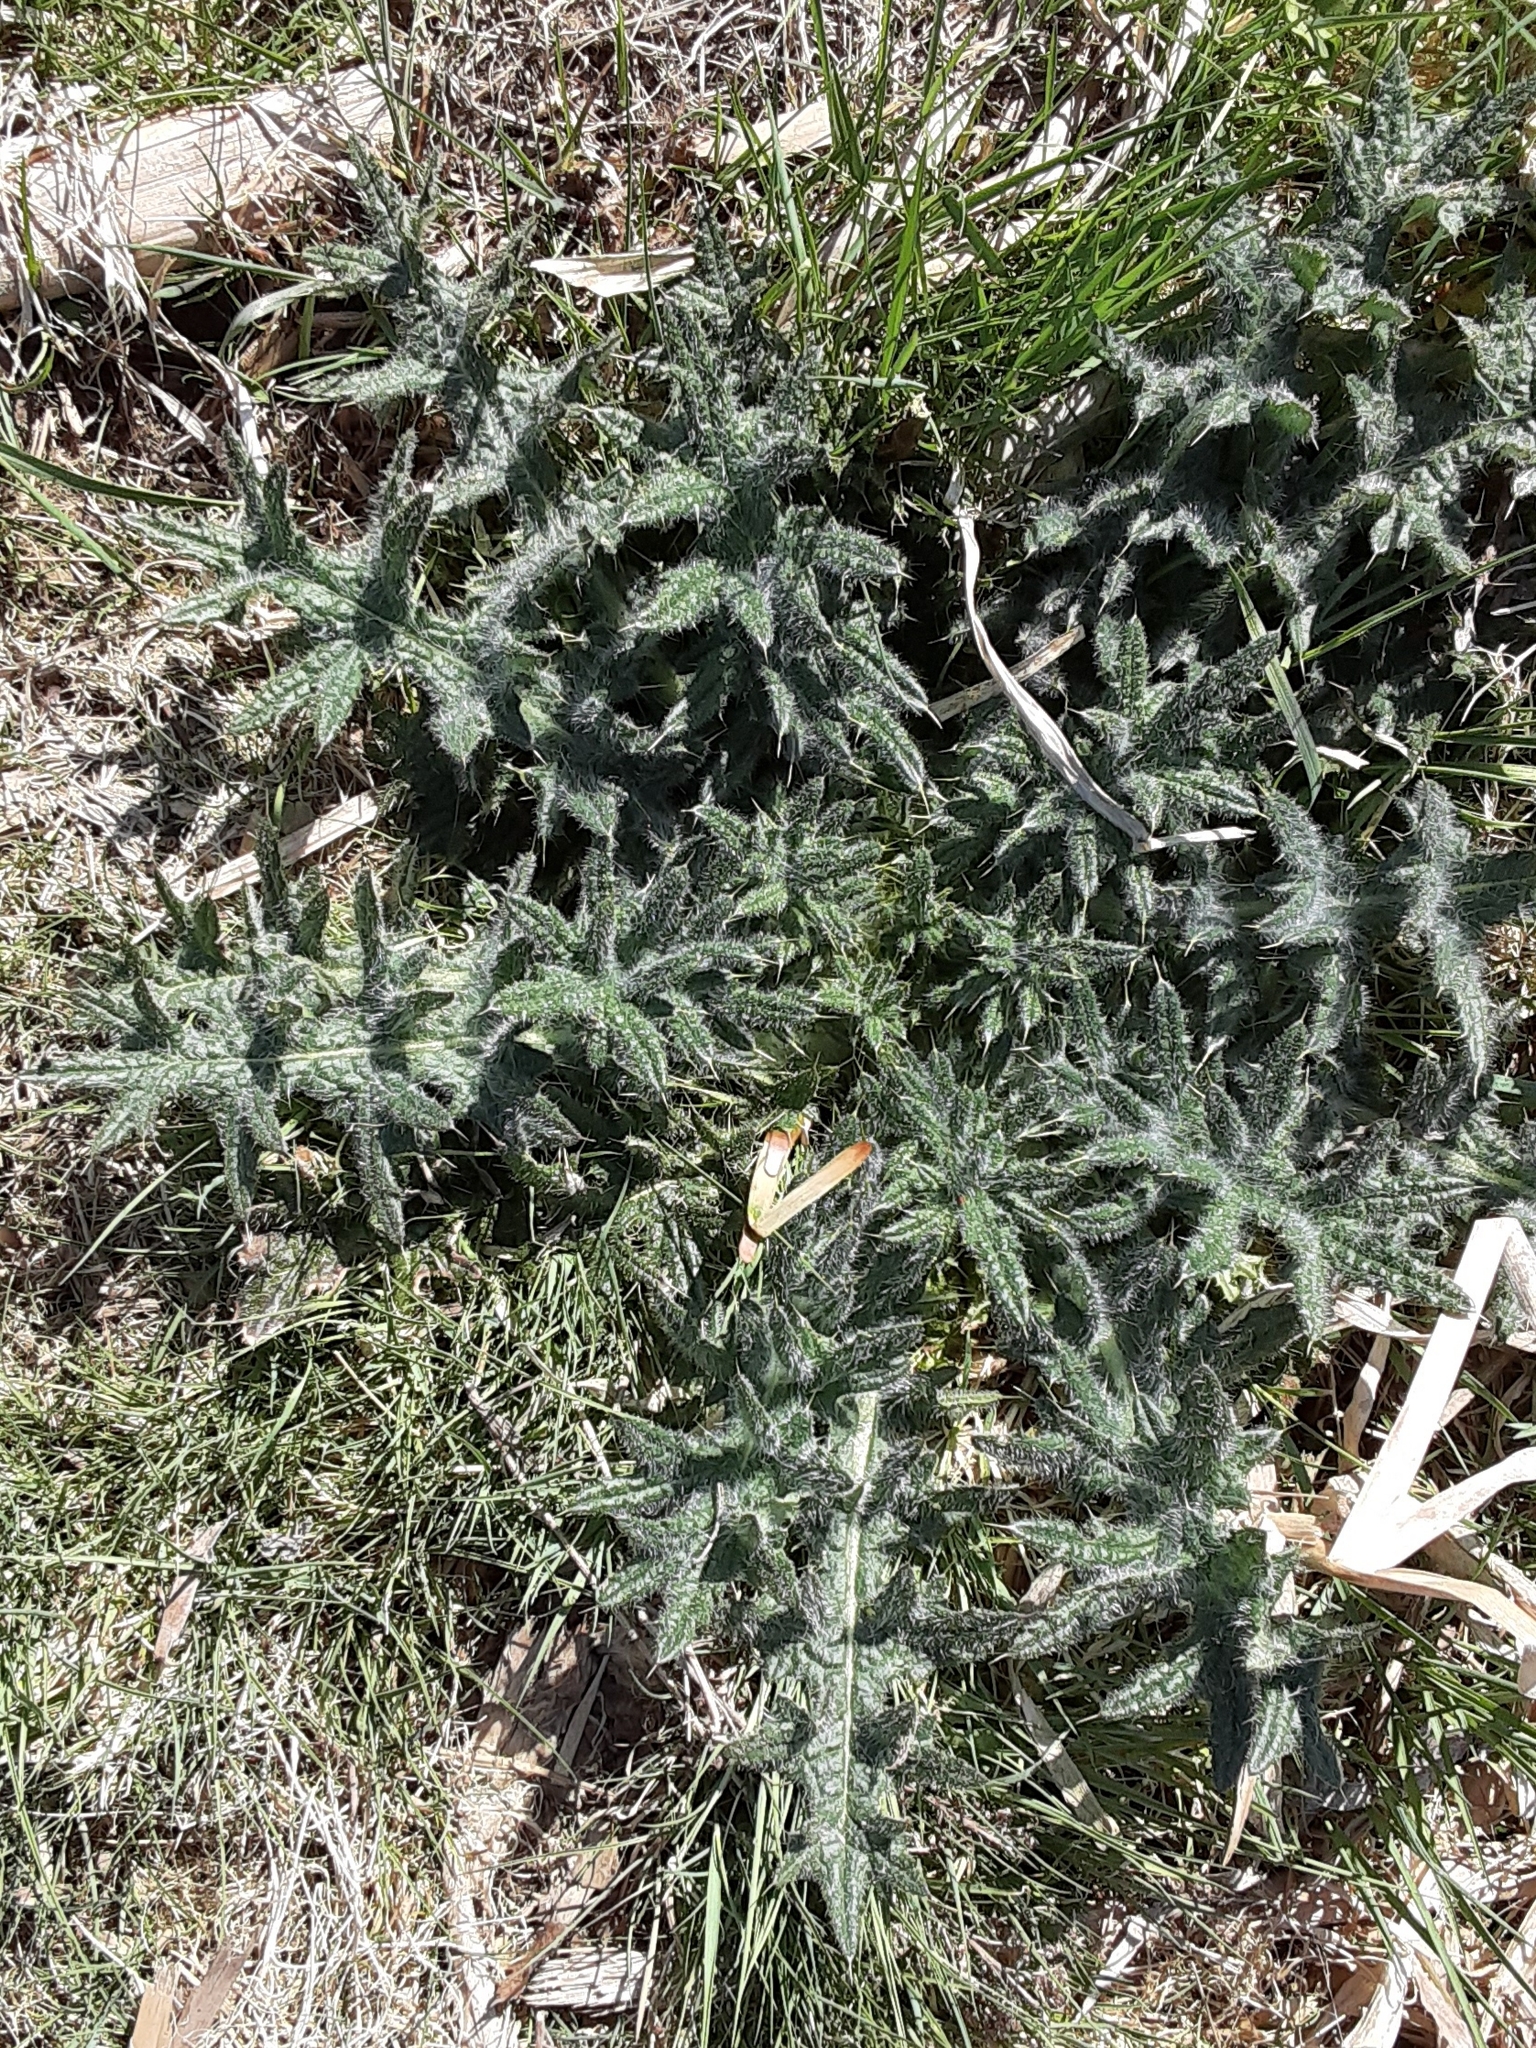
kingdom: Plantae
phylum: Tracheophyta
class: Magnoliopsida
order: Asterales
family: Asteraceae
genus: Cirsium
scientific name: Cirsium vulgare
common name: Bull thistle
